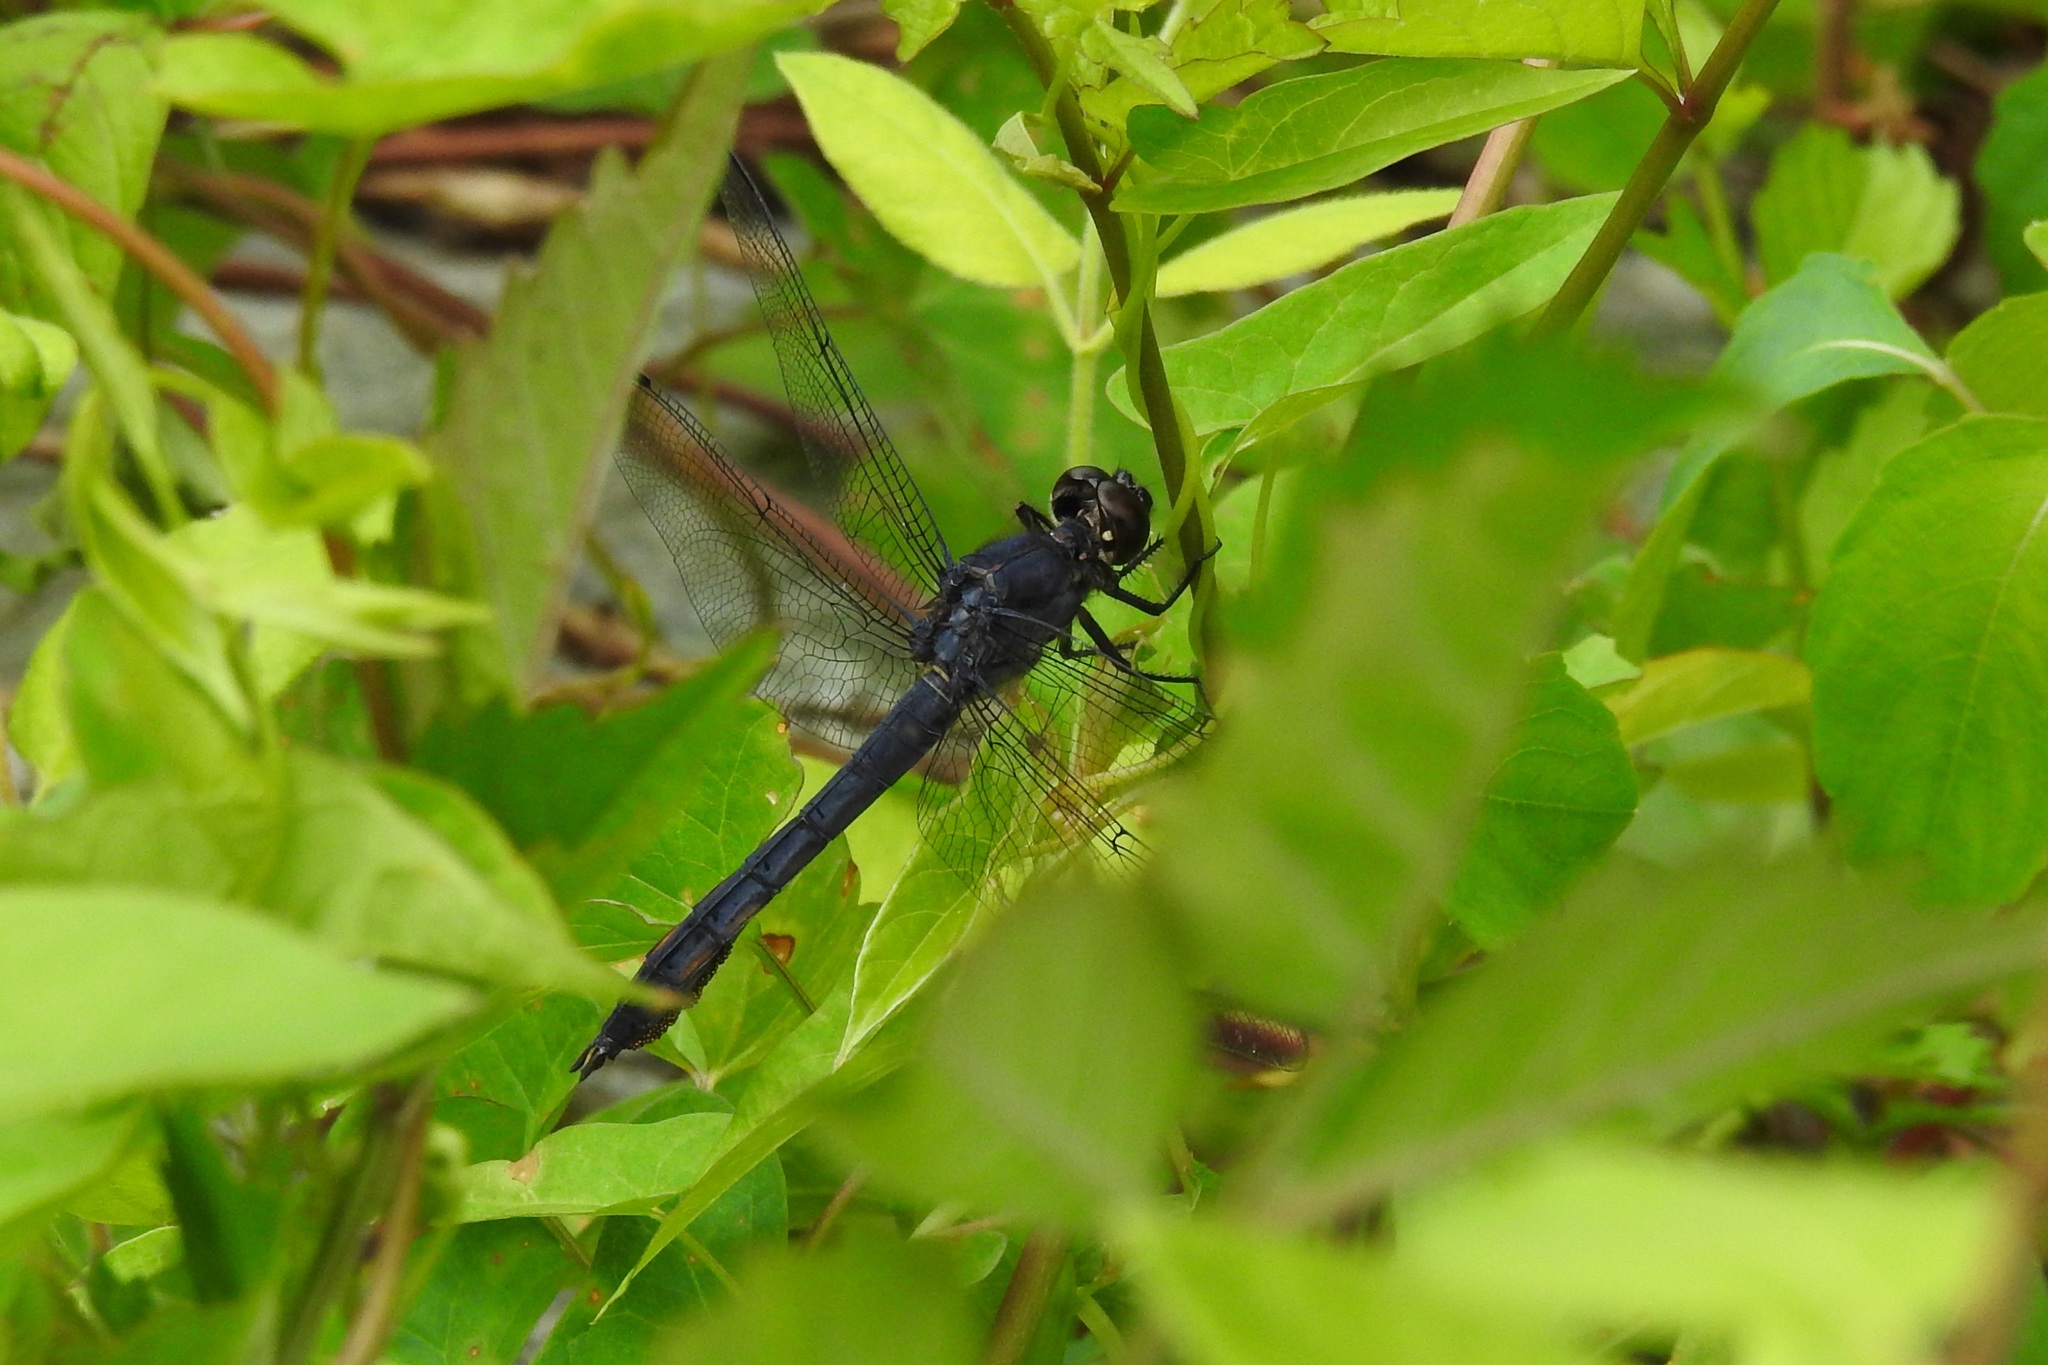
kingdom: Animalia
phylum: Arthropoda
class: Insecta
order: Odonata
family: Libellulidae
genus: Libellula
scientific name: Libellula incesta
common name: Slaty skimmer
